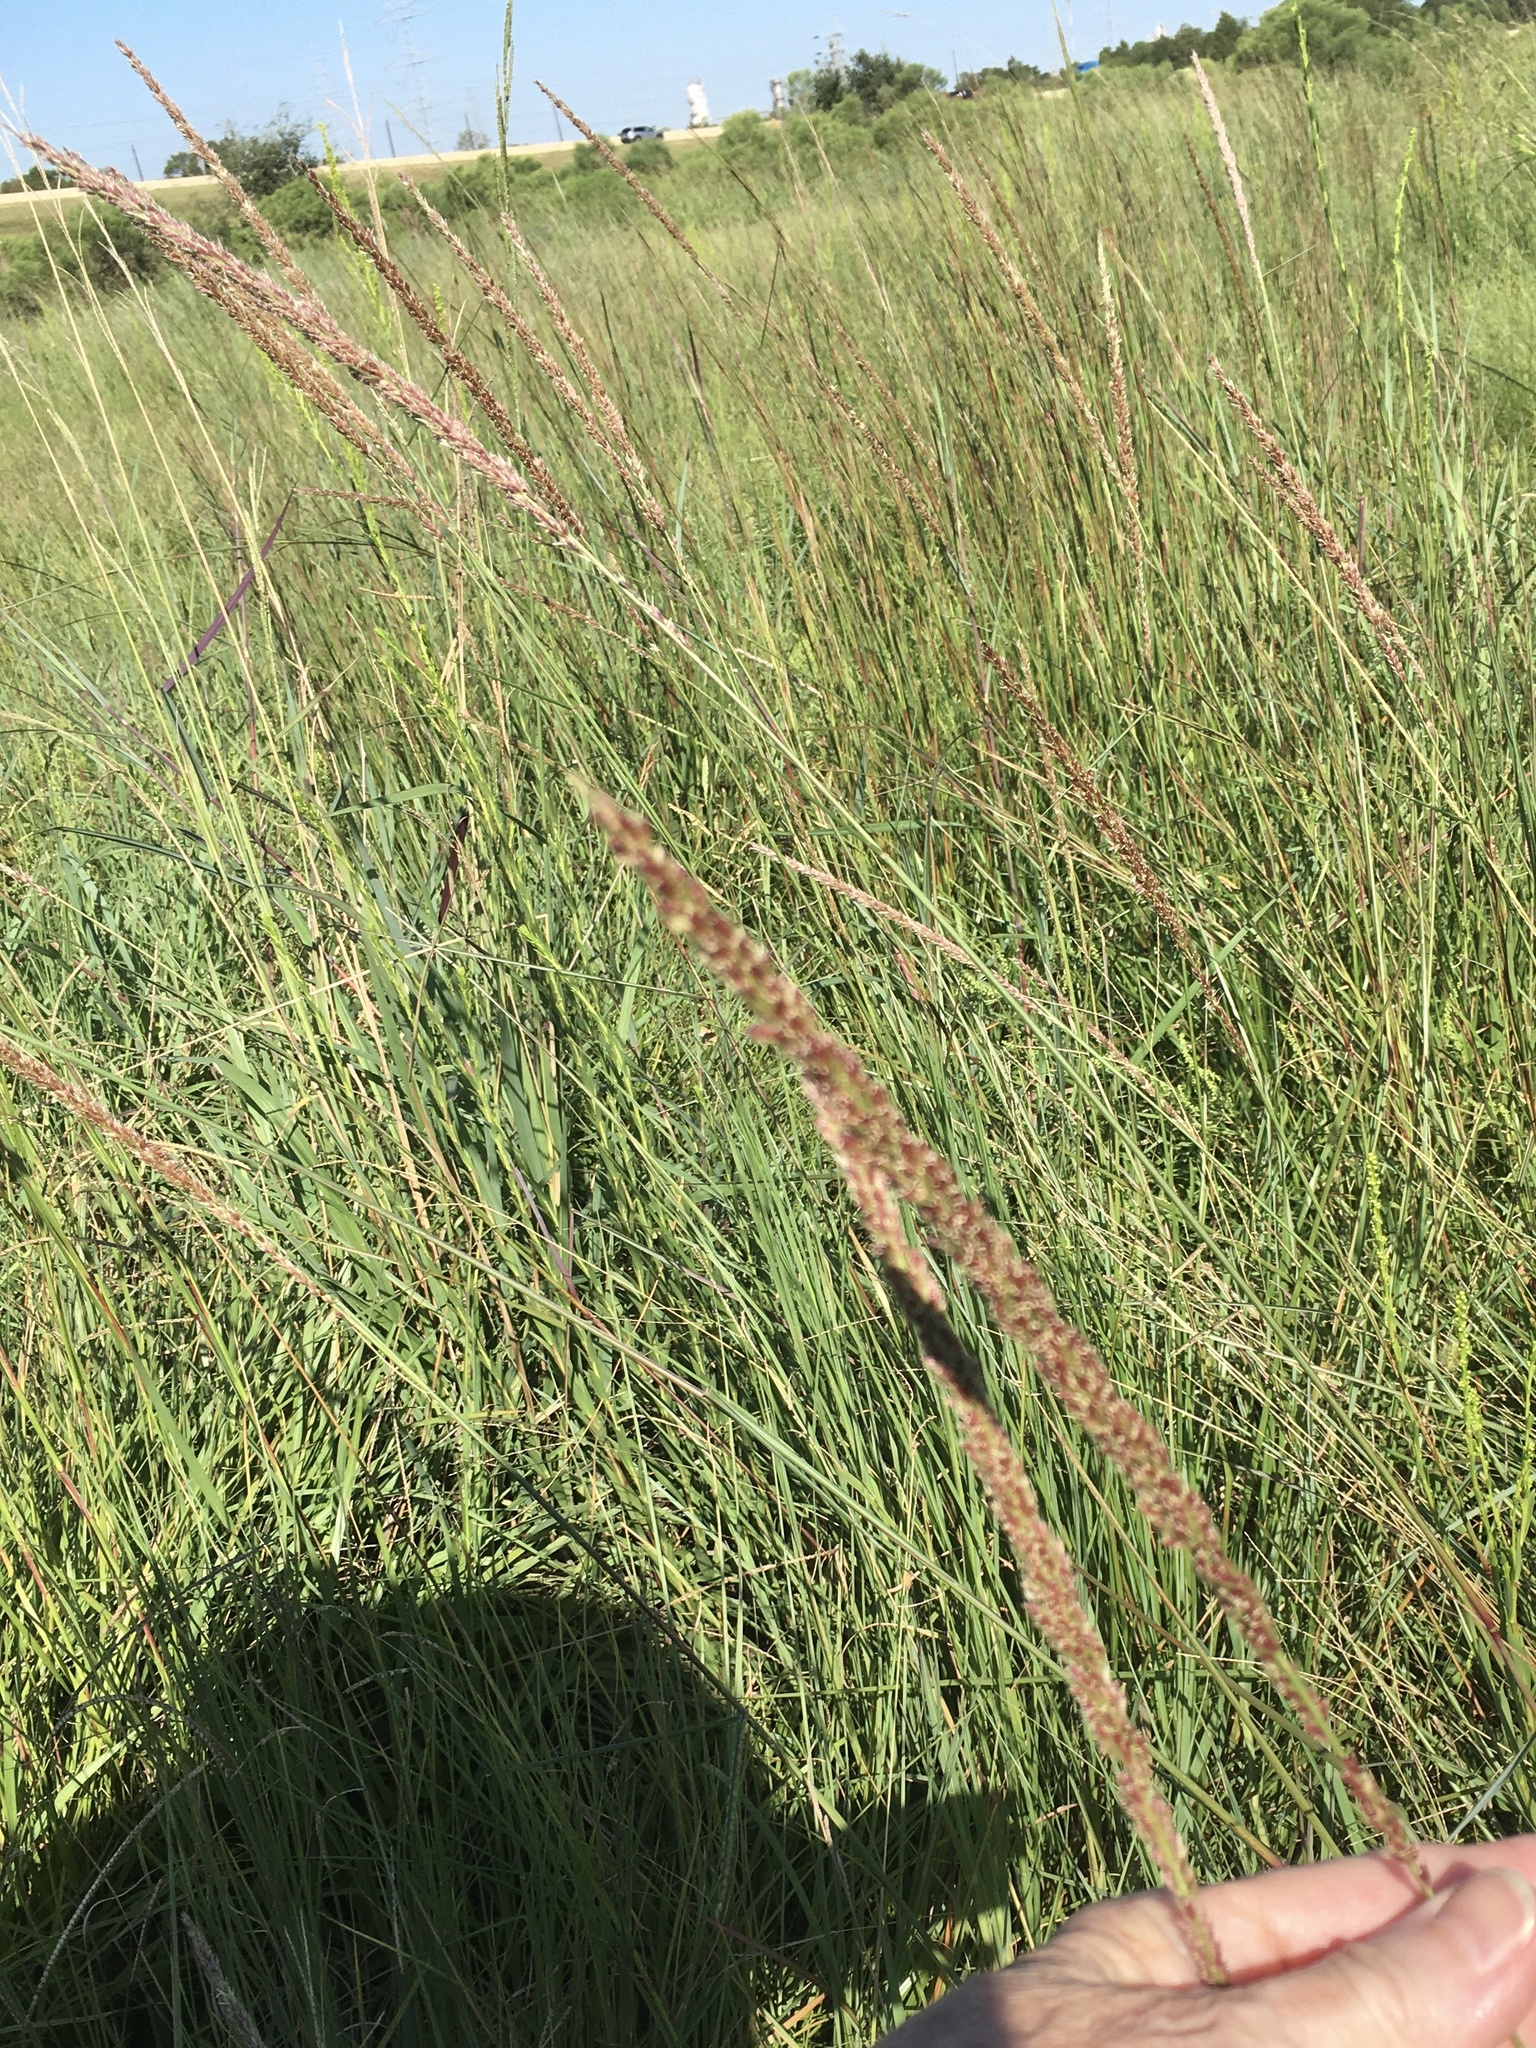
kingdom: Plantae
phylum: Tracheophyta
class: Liliopsida
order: Poales
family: Poaceae
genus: Tridens
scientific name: Tridens strictus
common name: Long-spike tridens
